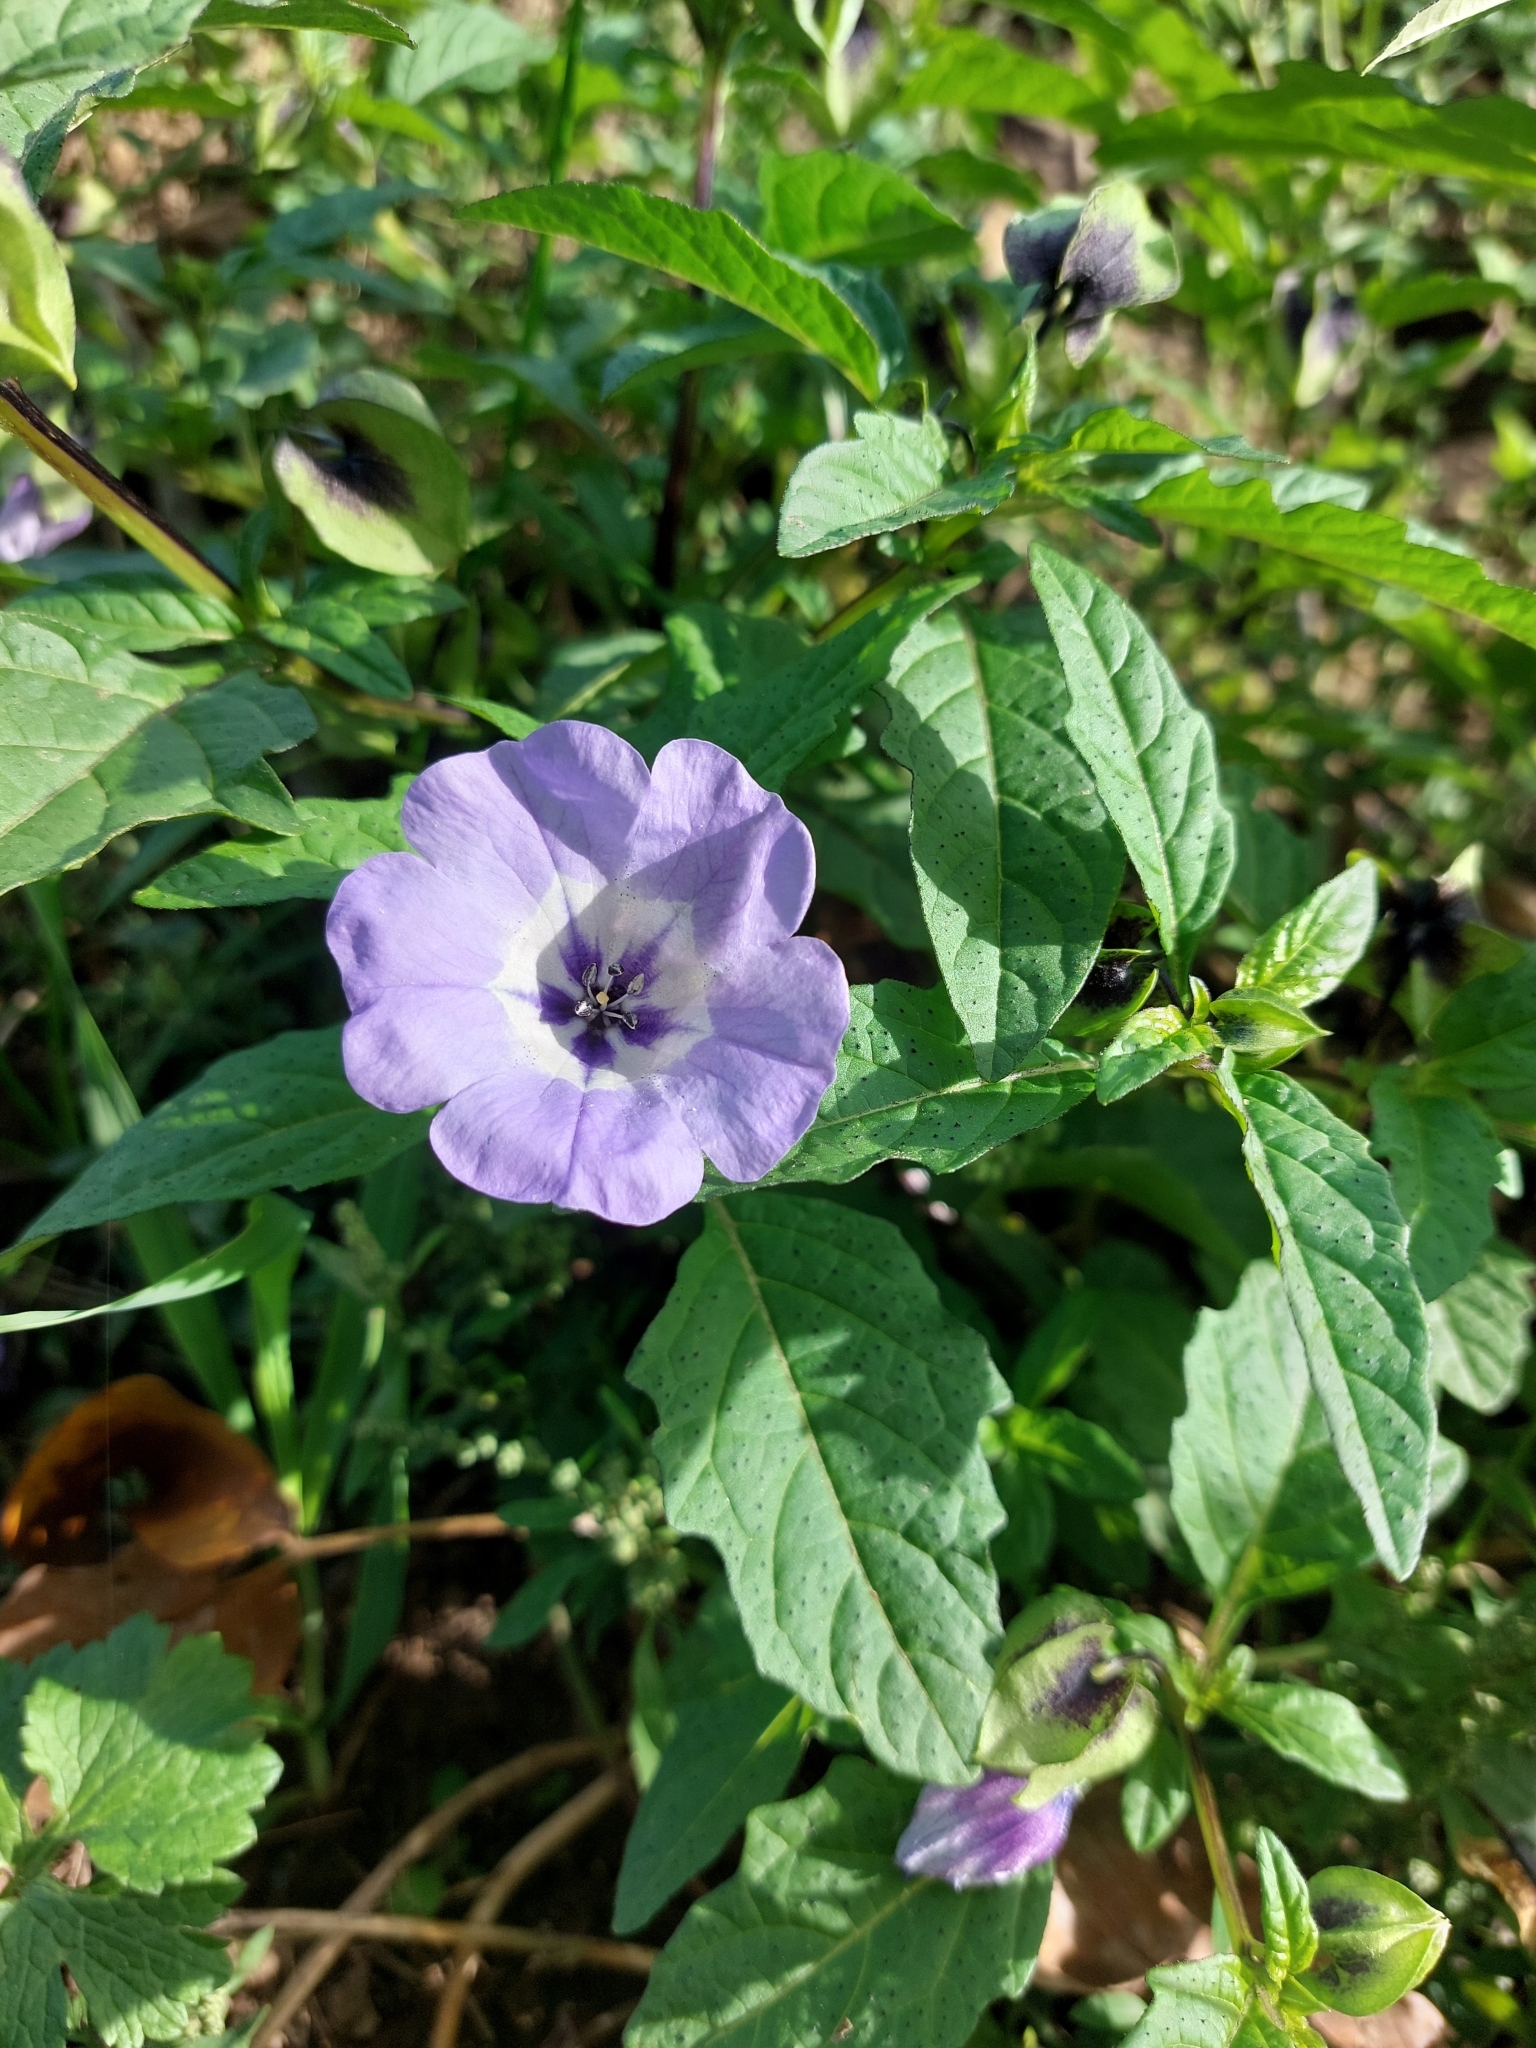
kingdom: Plantae
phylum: Tracheophyta
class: Magnoliopsida
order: Solanales
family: Solanaceae
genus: Nicandra
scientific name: Nicandra physalodes
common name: Apple-of-peru
